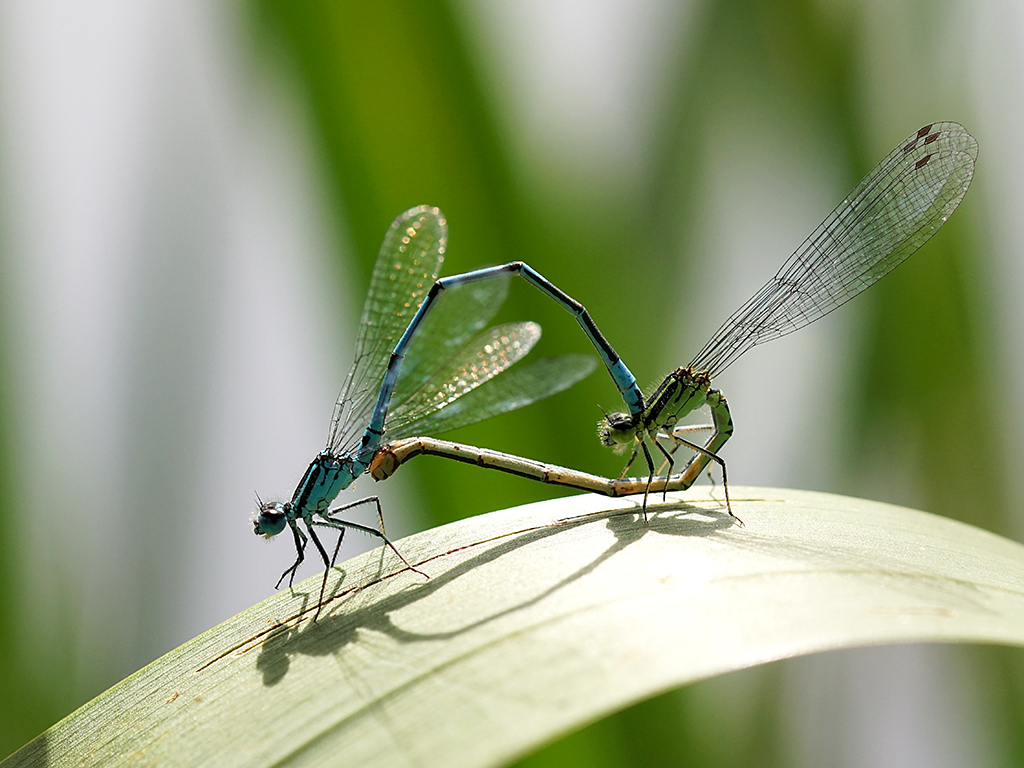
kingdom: Animalia
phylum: Arthropoda
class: Insecta
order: Odonata
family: Coenagrionidae
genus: Coenagrion
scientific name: Coenagrion puella
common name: Azure damselfly
